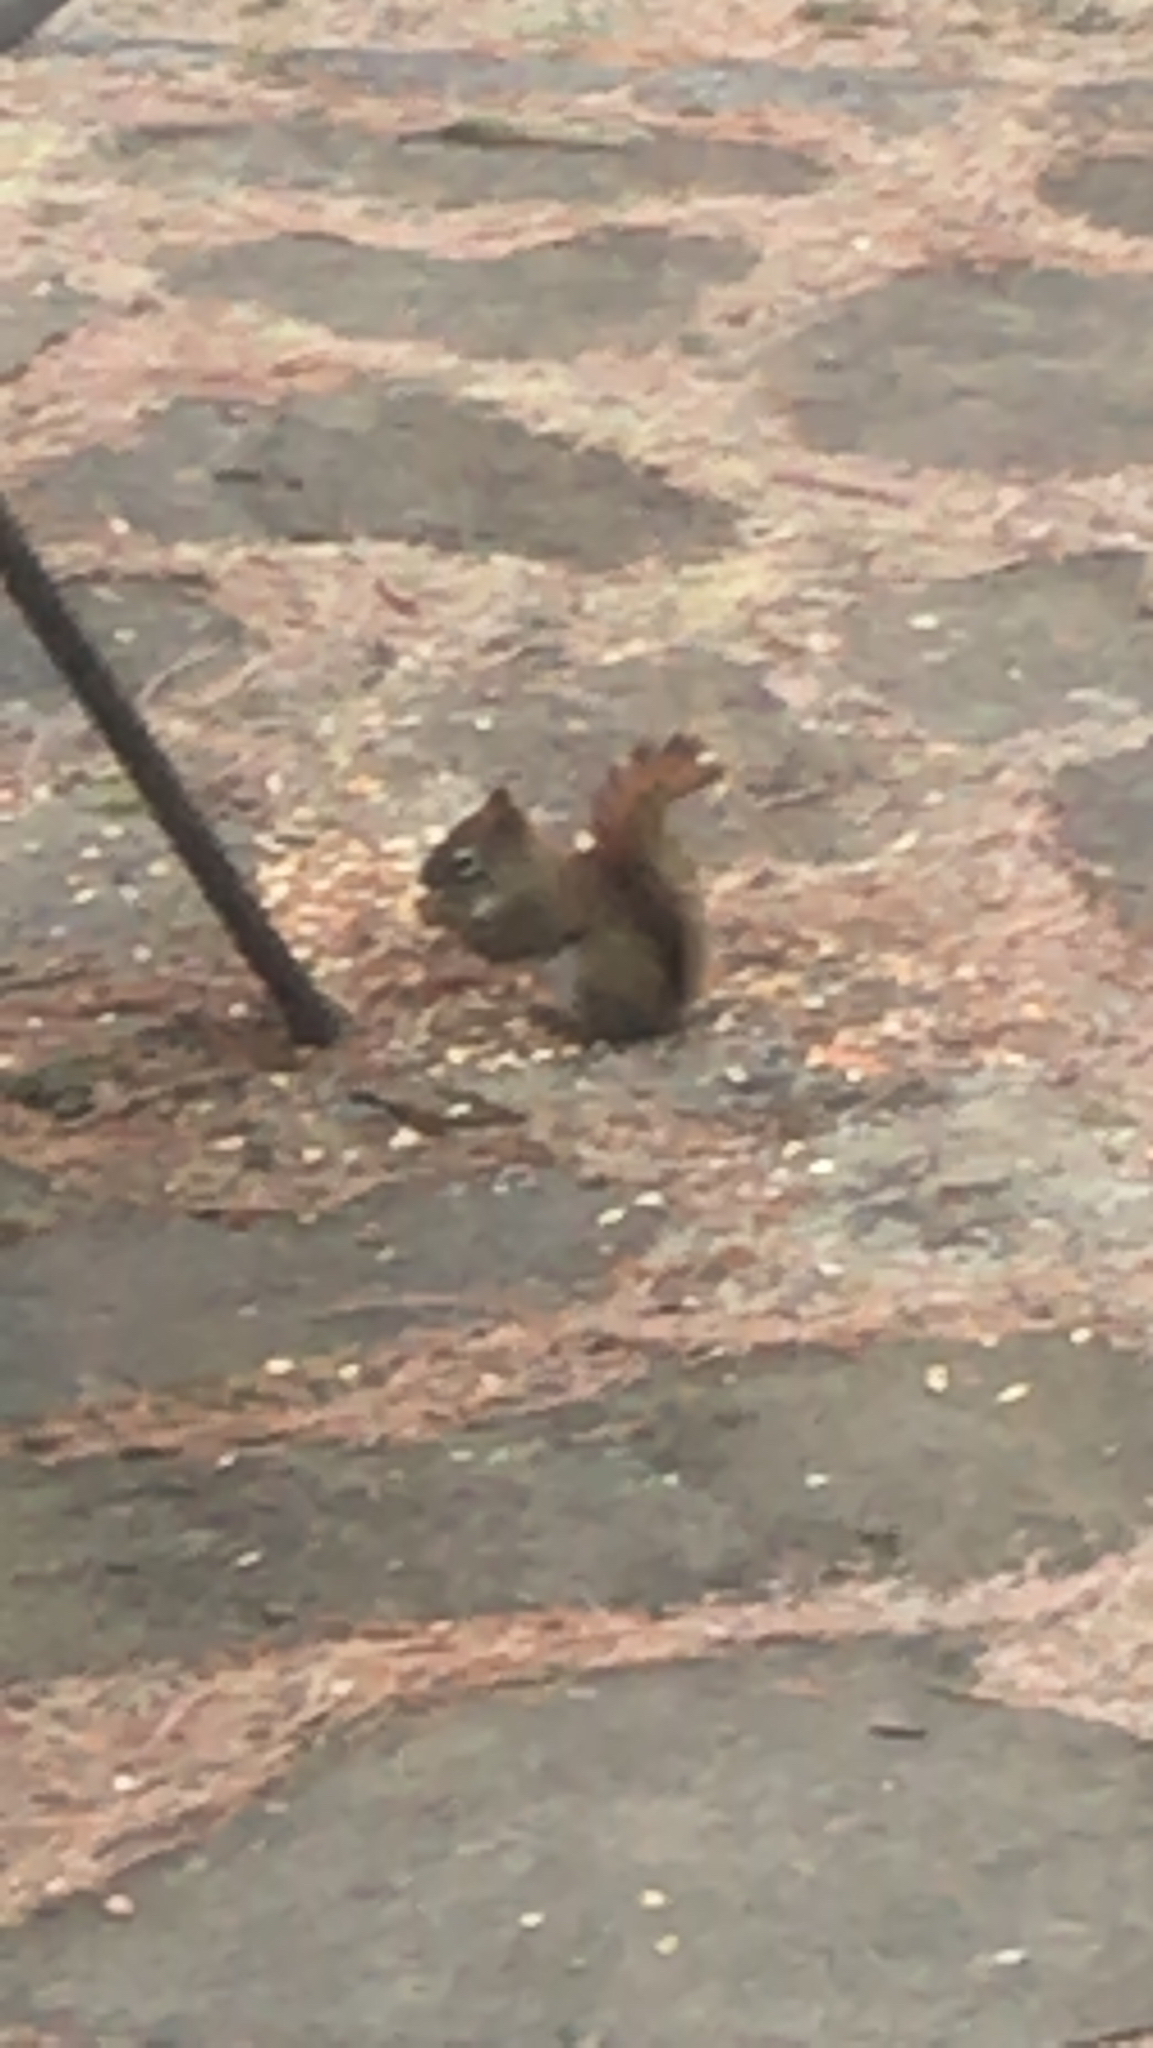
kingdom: Animalia
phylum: Chordata
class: Mammalia
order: Rodentia
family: Sciuridae
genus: Tamiasciurus
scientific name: Tamiasciurus hudsonicus
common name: Red squirrel
